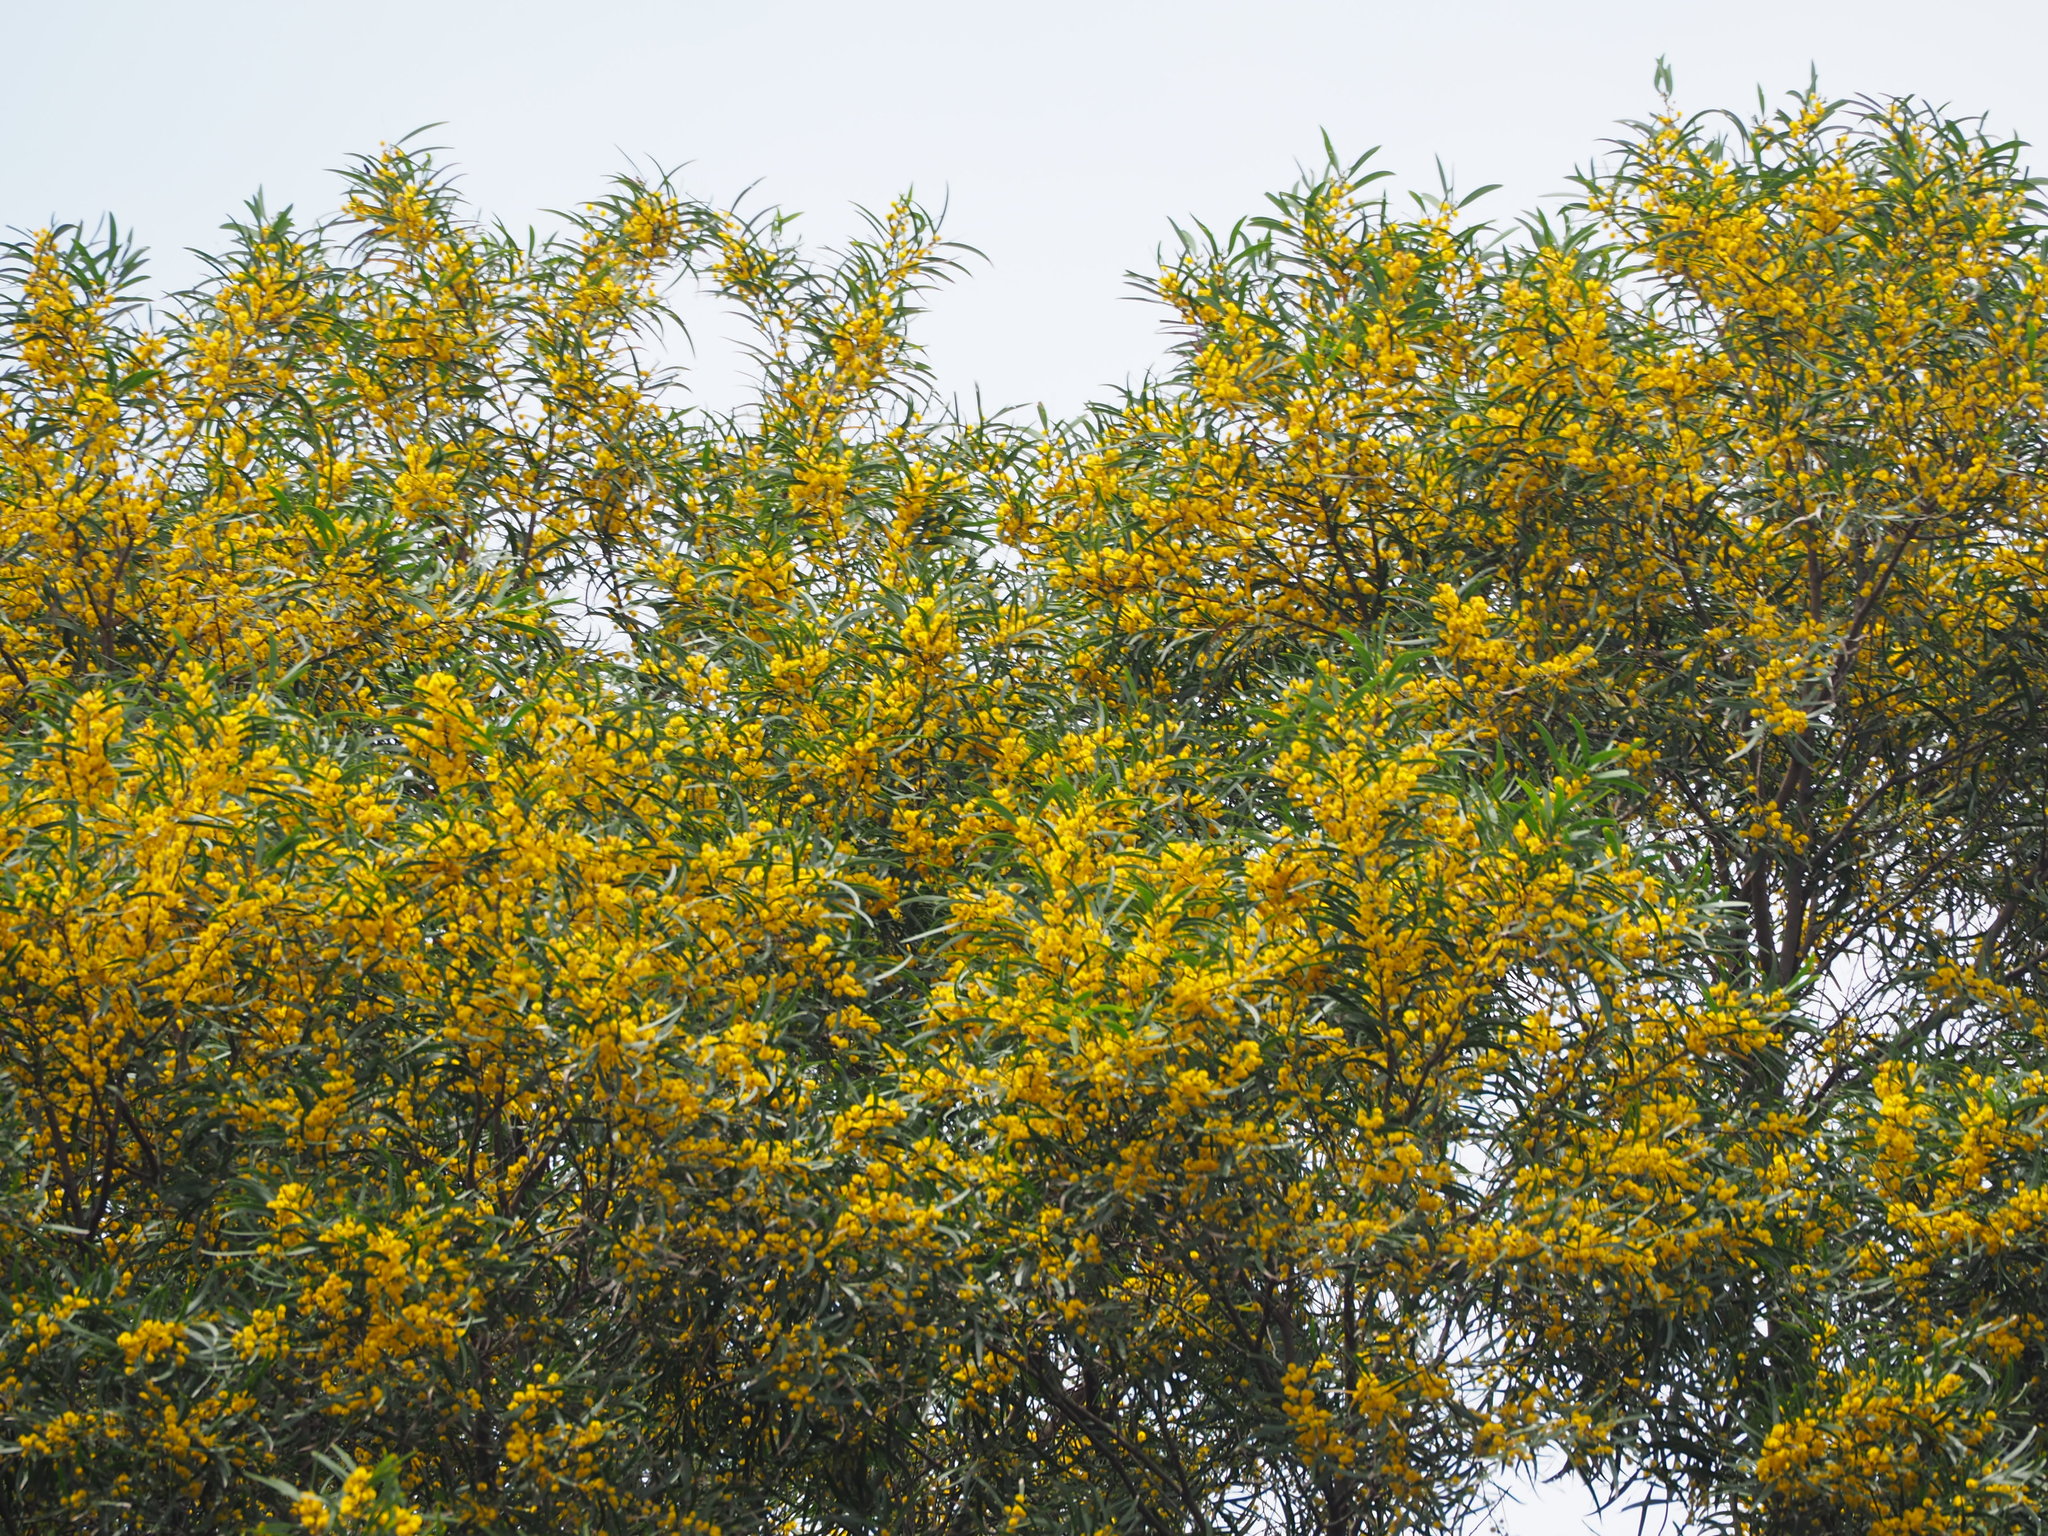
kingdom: Plantae
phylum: Tracheophyta
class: Magnoliopsida
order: Fabales
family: Fabaceae
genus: Acacia
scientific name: Acacia confusa
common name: Formosan koa
